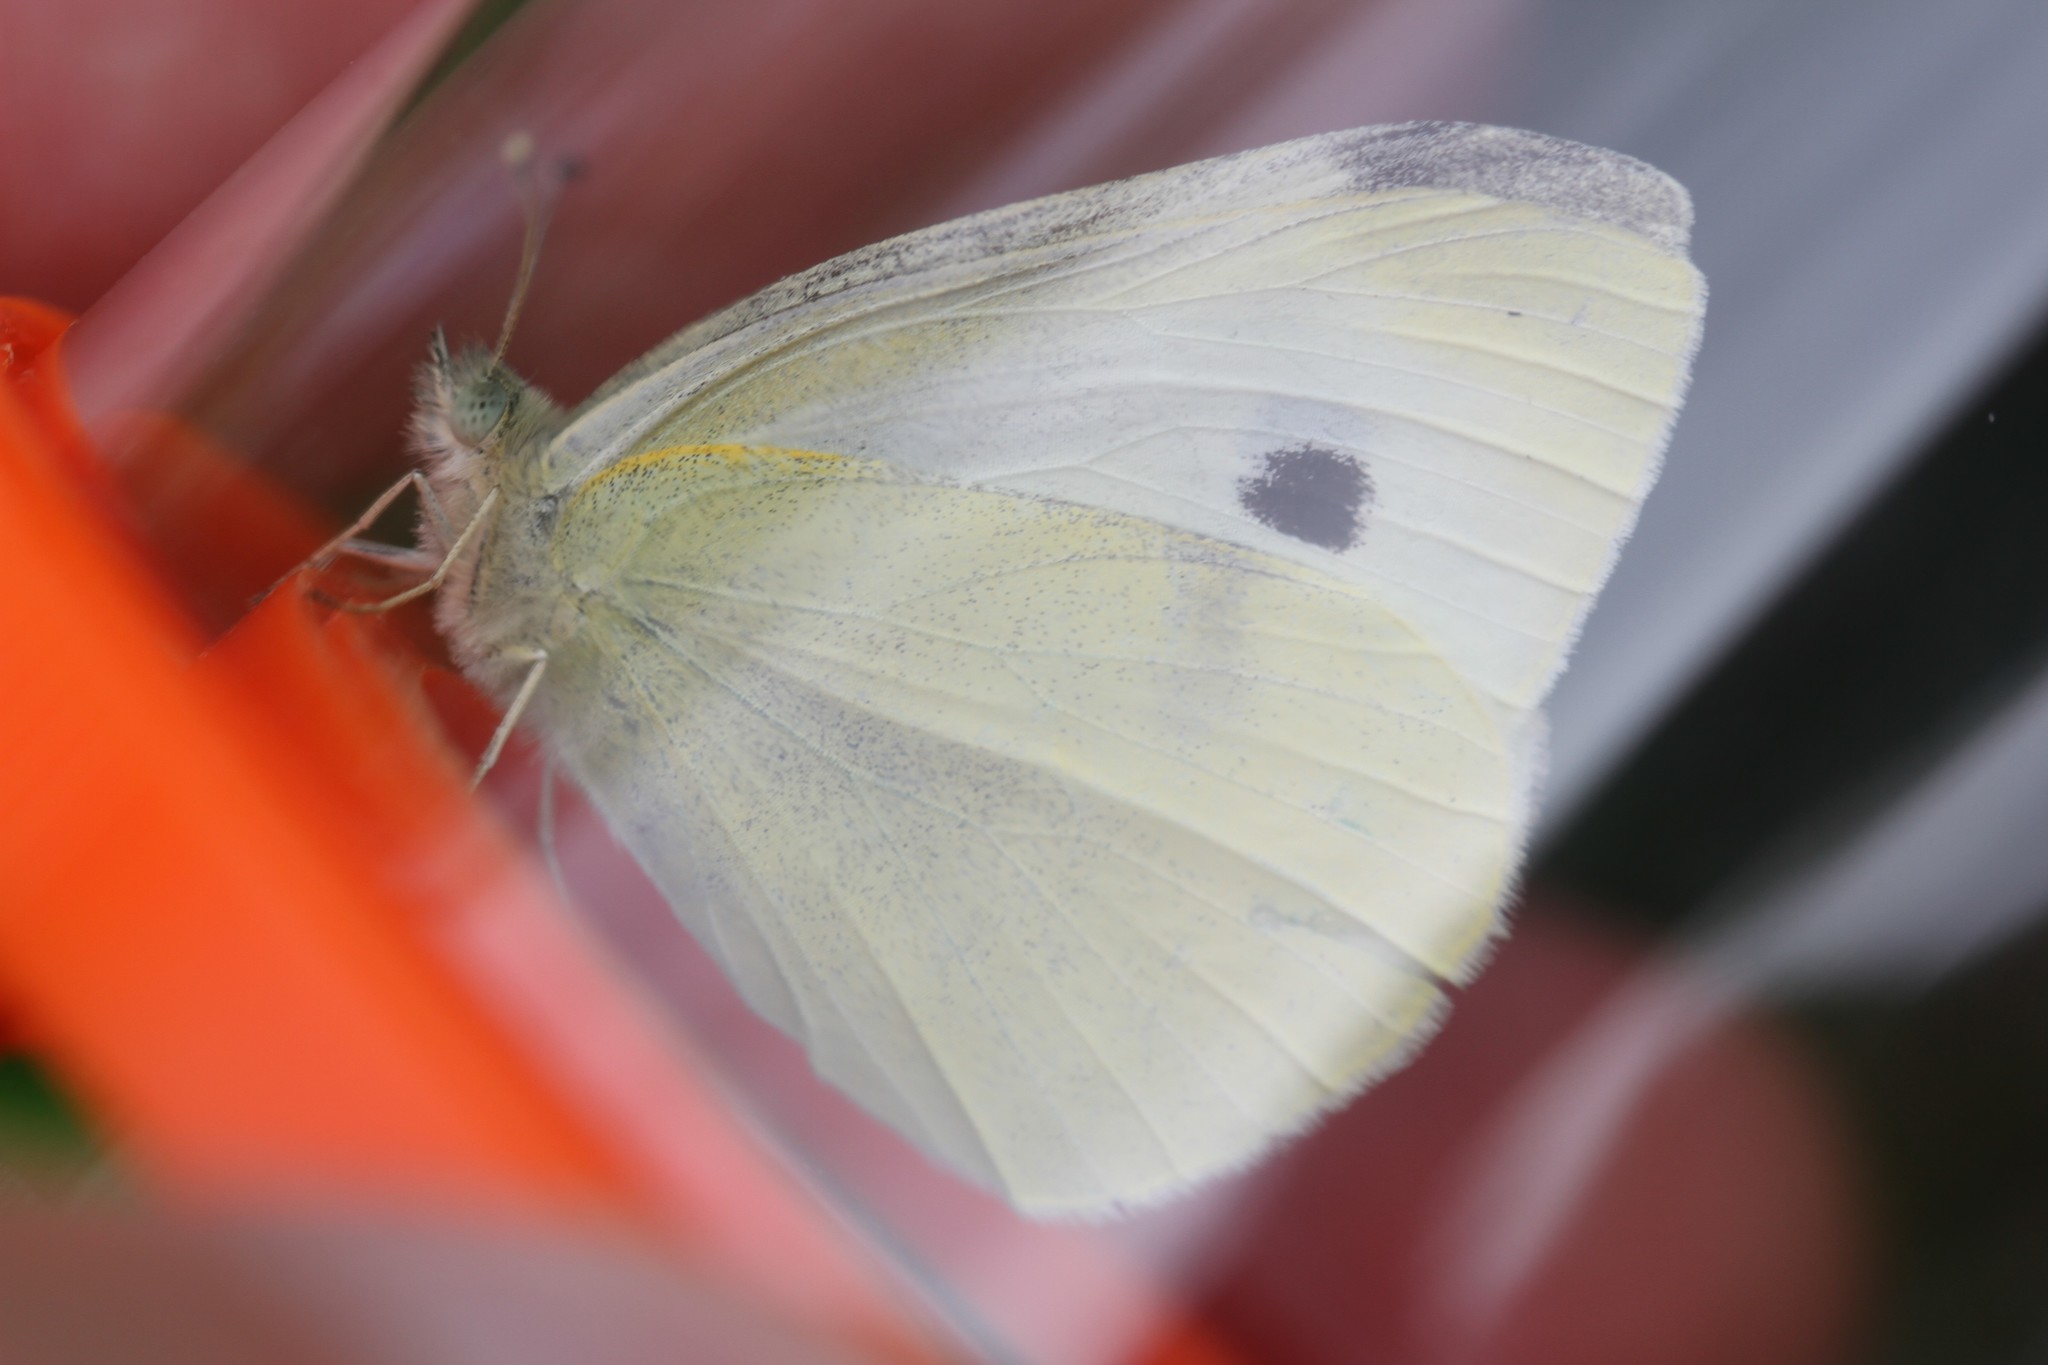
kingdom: Animalia
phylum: Arthropoda
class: Insecta
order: Lepidoptera
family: Pieridae
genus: Pieris
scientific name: Pieris rapae
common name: Small white
